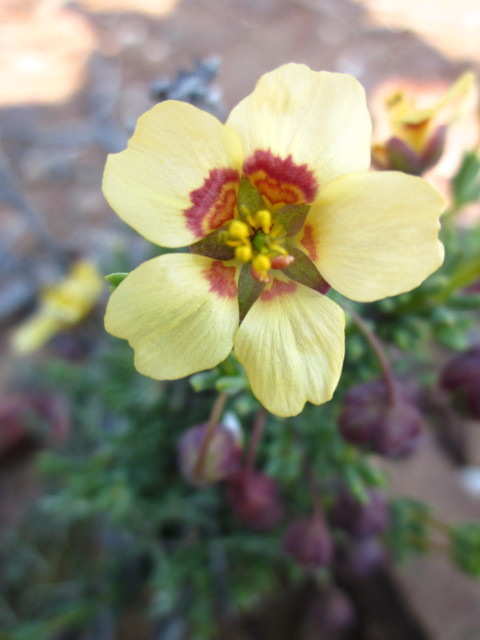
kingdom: Plantae
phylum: Tracheophyta
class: Magnoliopsida
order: Zygophyllales
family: Zygophyllaceae
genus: Roepera
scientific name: Roepera pygmaea
